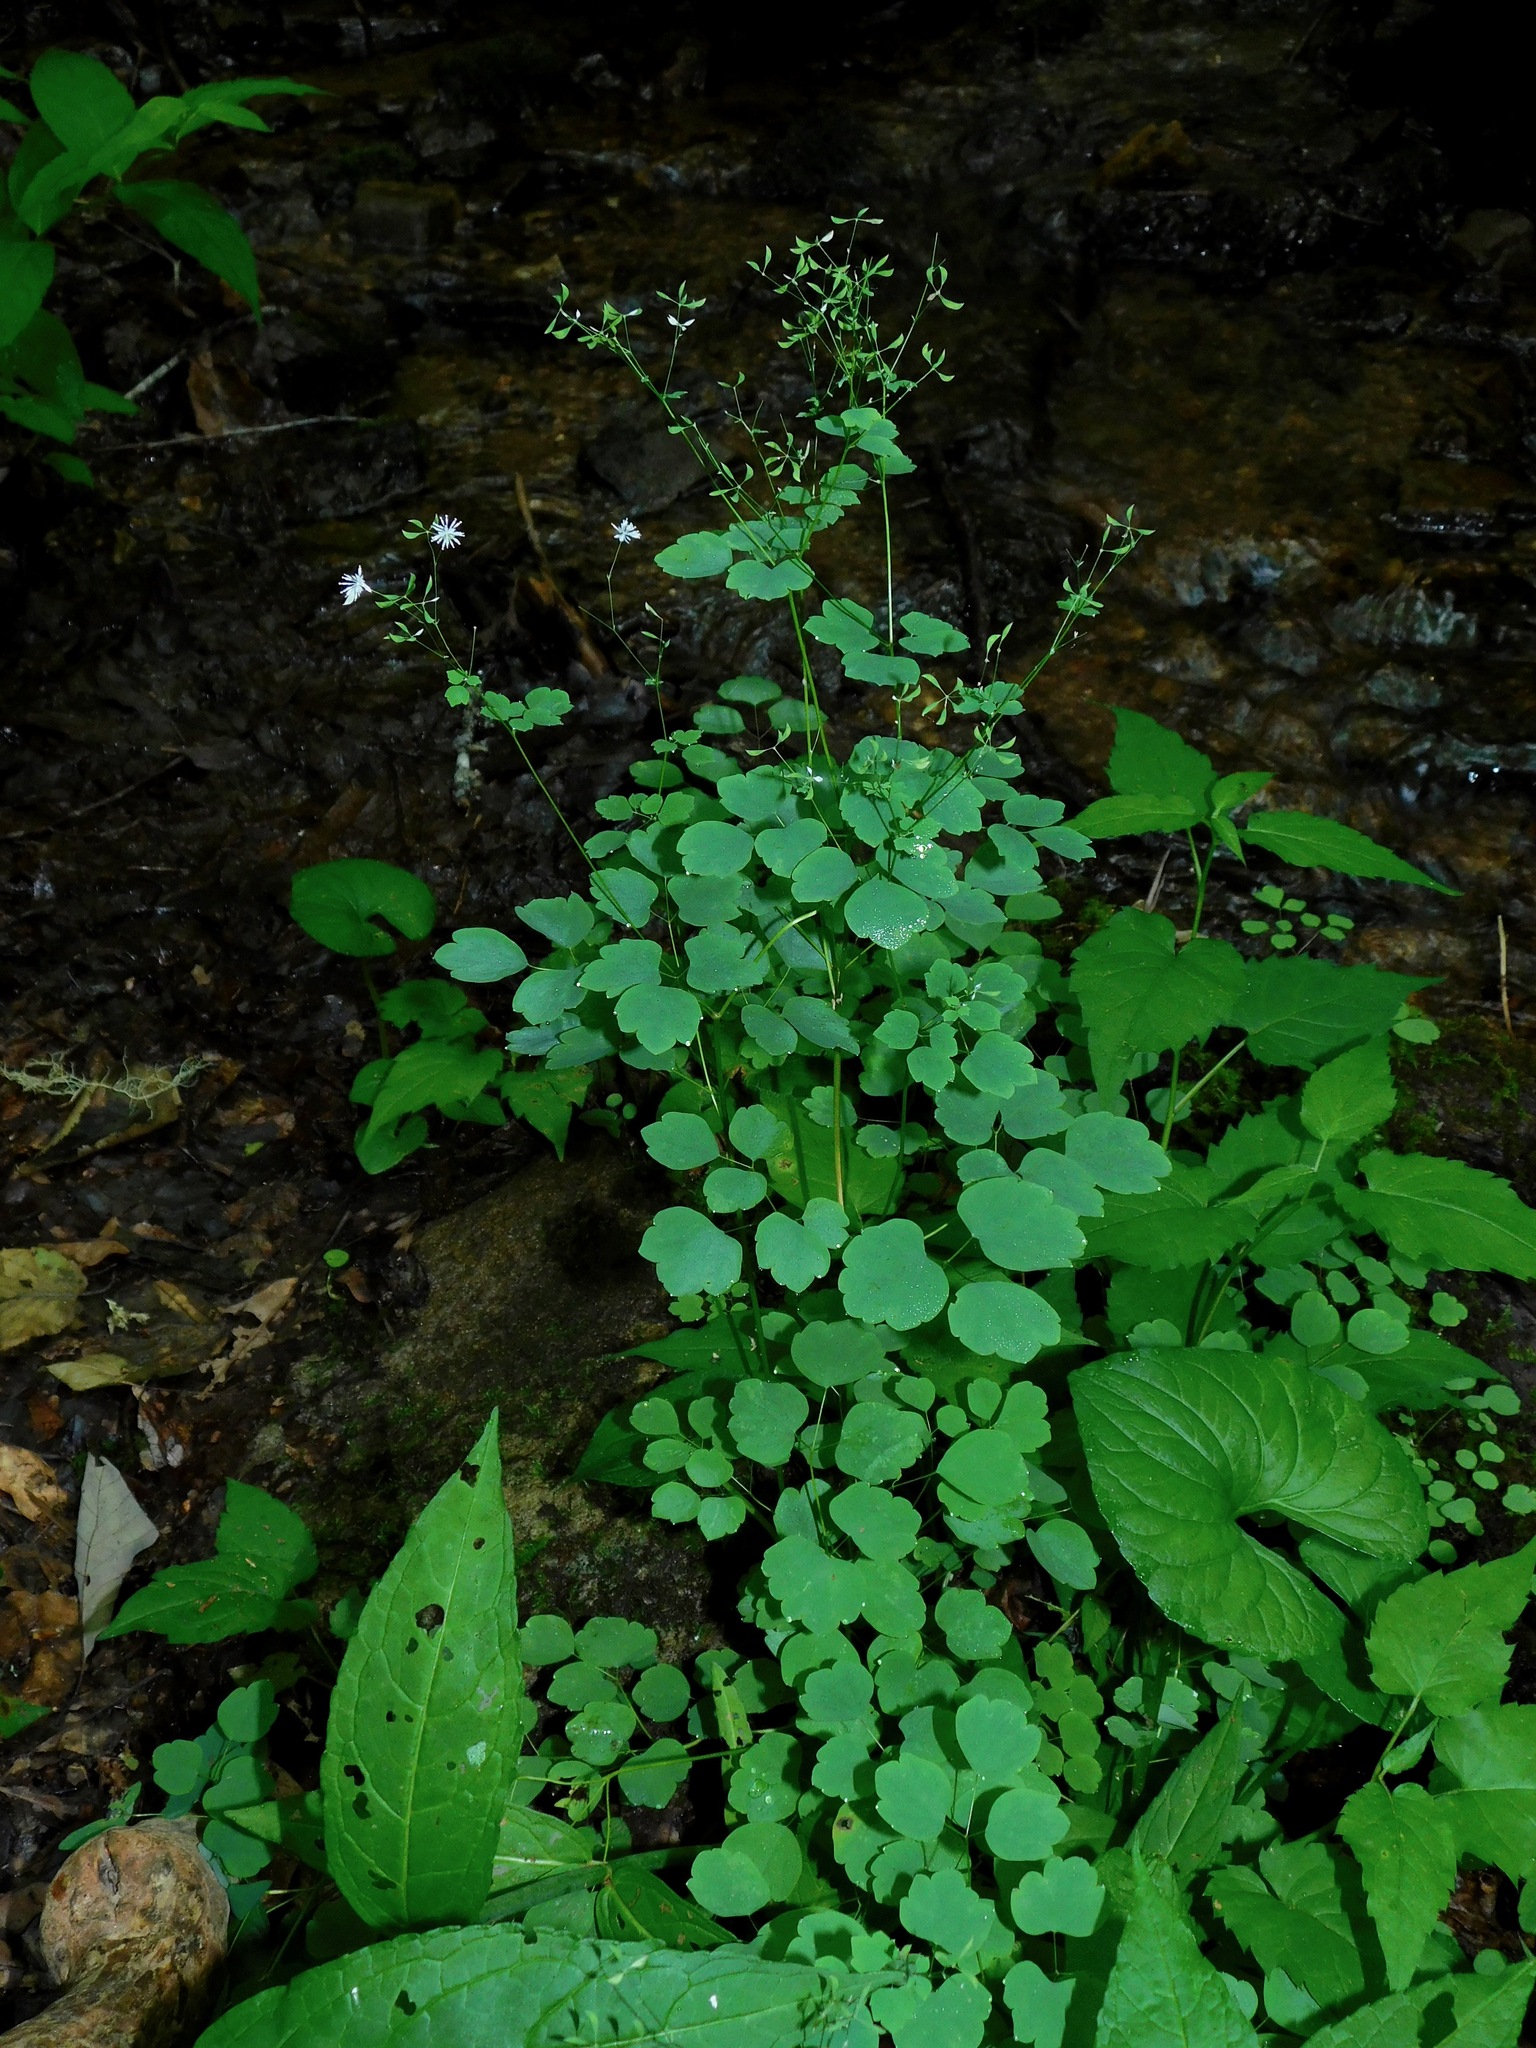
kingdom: Plantae
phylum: Tracheophyta
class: Magnoliopsida
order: Ranunculales
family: Ranunculaceae
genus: Thalictrum
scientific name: Thalictrum clavatum
